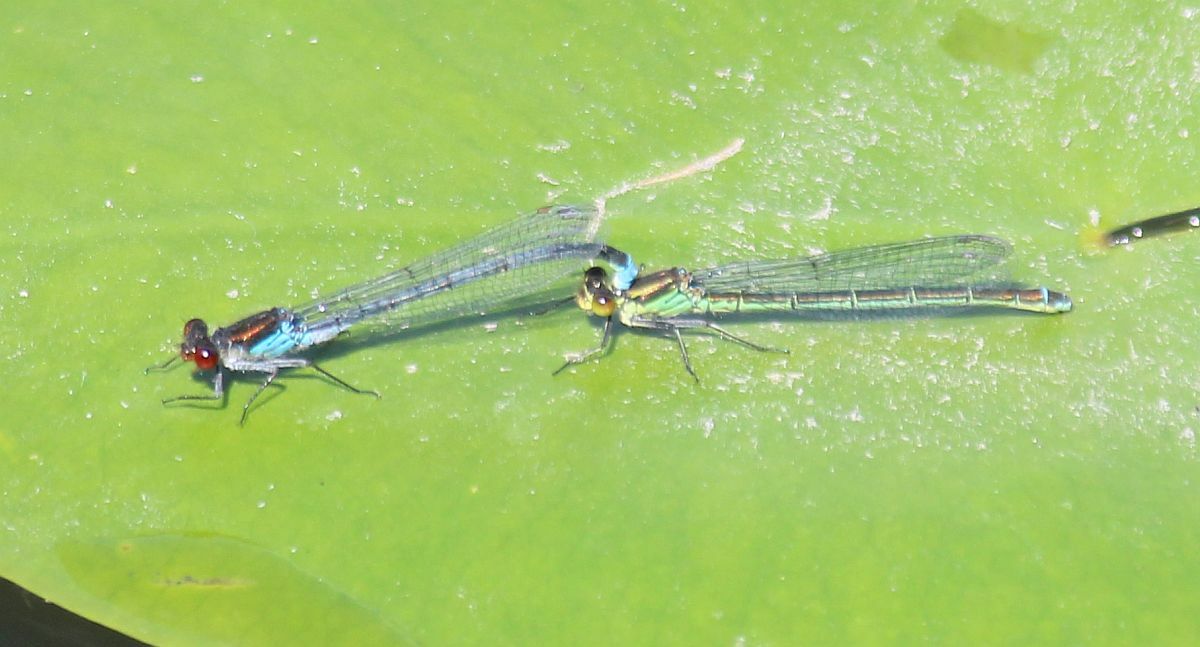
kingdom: Animalia
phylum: Arthropoda
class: Insecta
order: Odonata
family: Coenagrionidae
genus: Erythromma
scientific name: Erythromma najas
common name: Red-eyed damselfly
